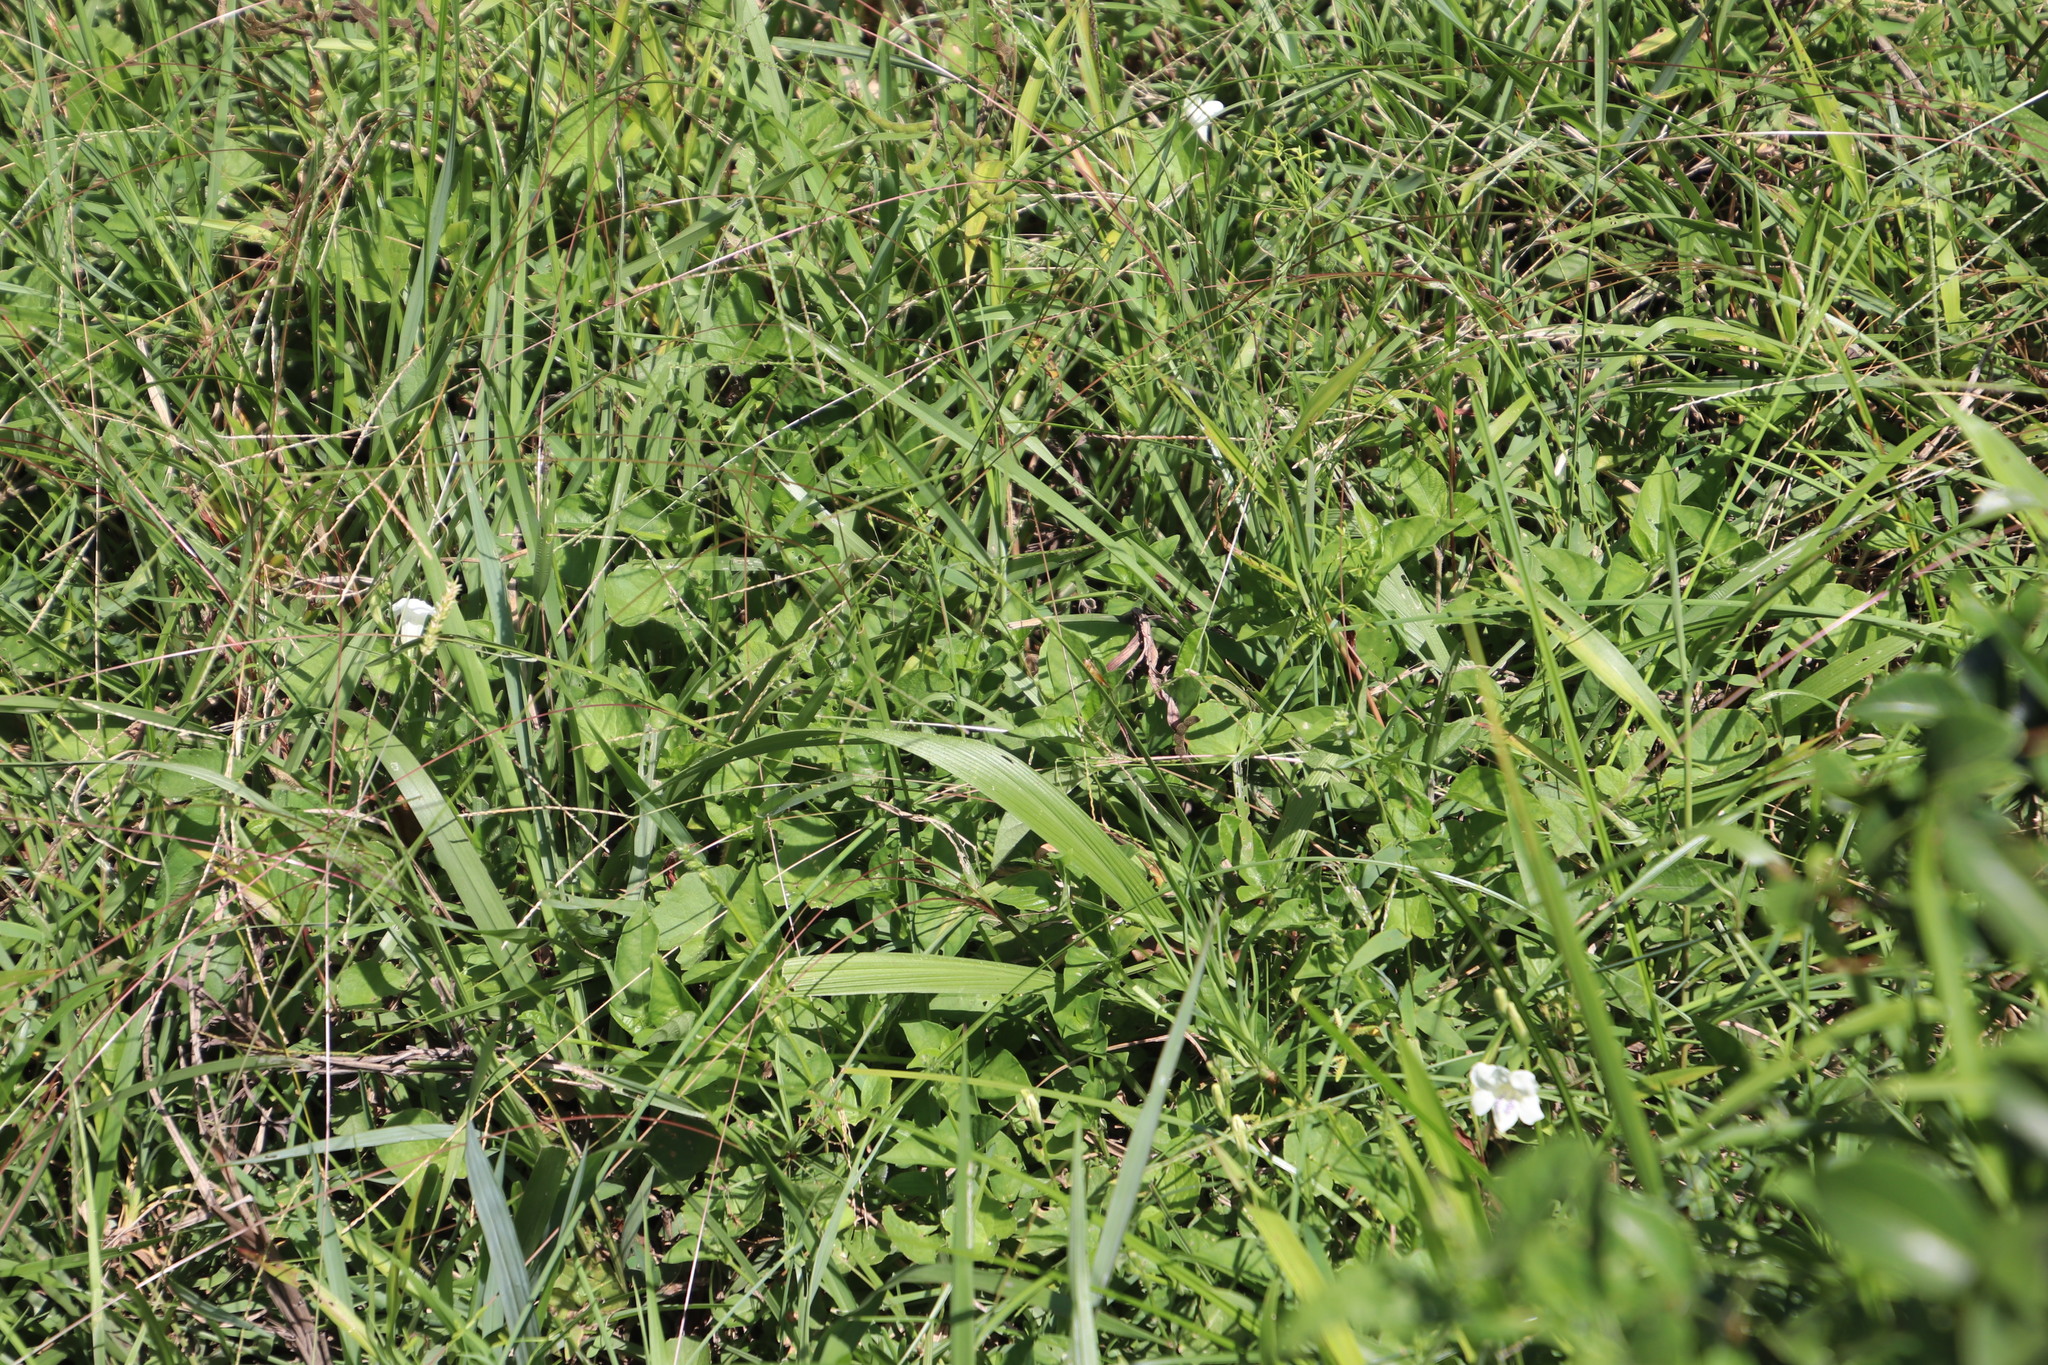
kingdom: Plantae
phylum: Tracheophyta
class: Magnoliopsida
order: Lamiales
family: Acanthaceae
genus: Asystasia
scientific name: Asystasia intrusa
